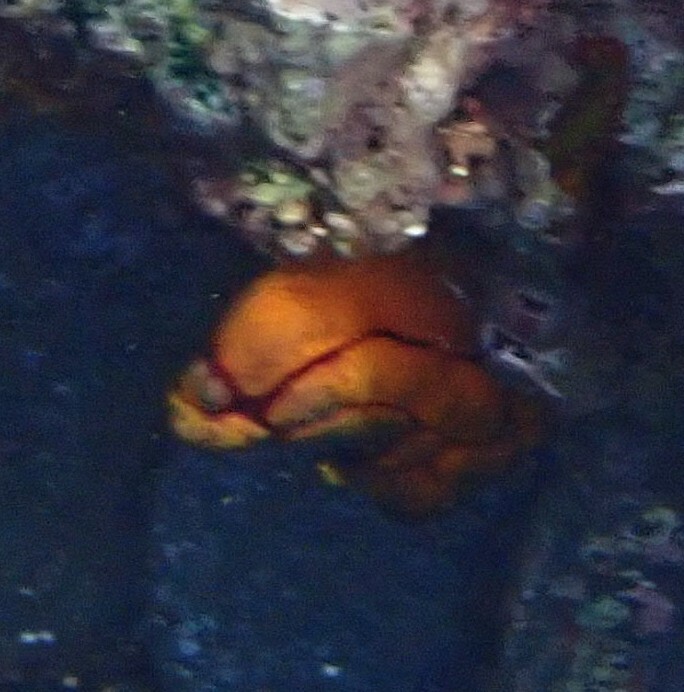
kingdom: Animalia
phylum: Chordata
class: Ascidiacea
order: Stolidobranchia
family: Styelidae
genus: Polycarpa
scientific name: Polycarpa aurata
